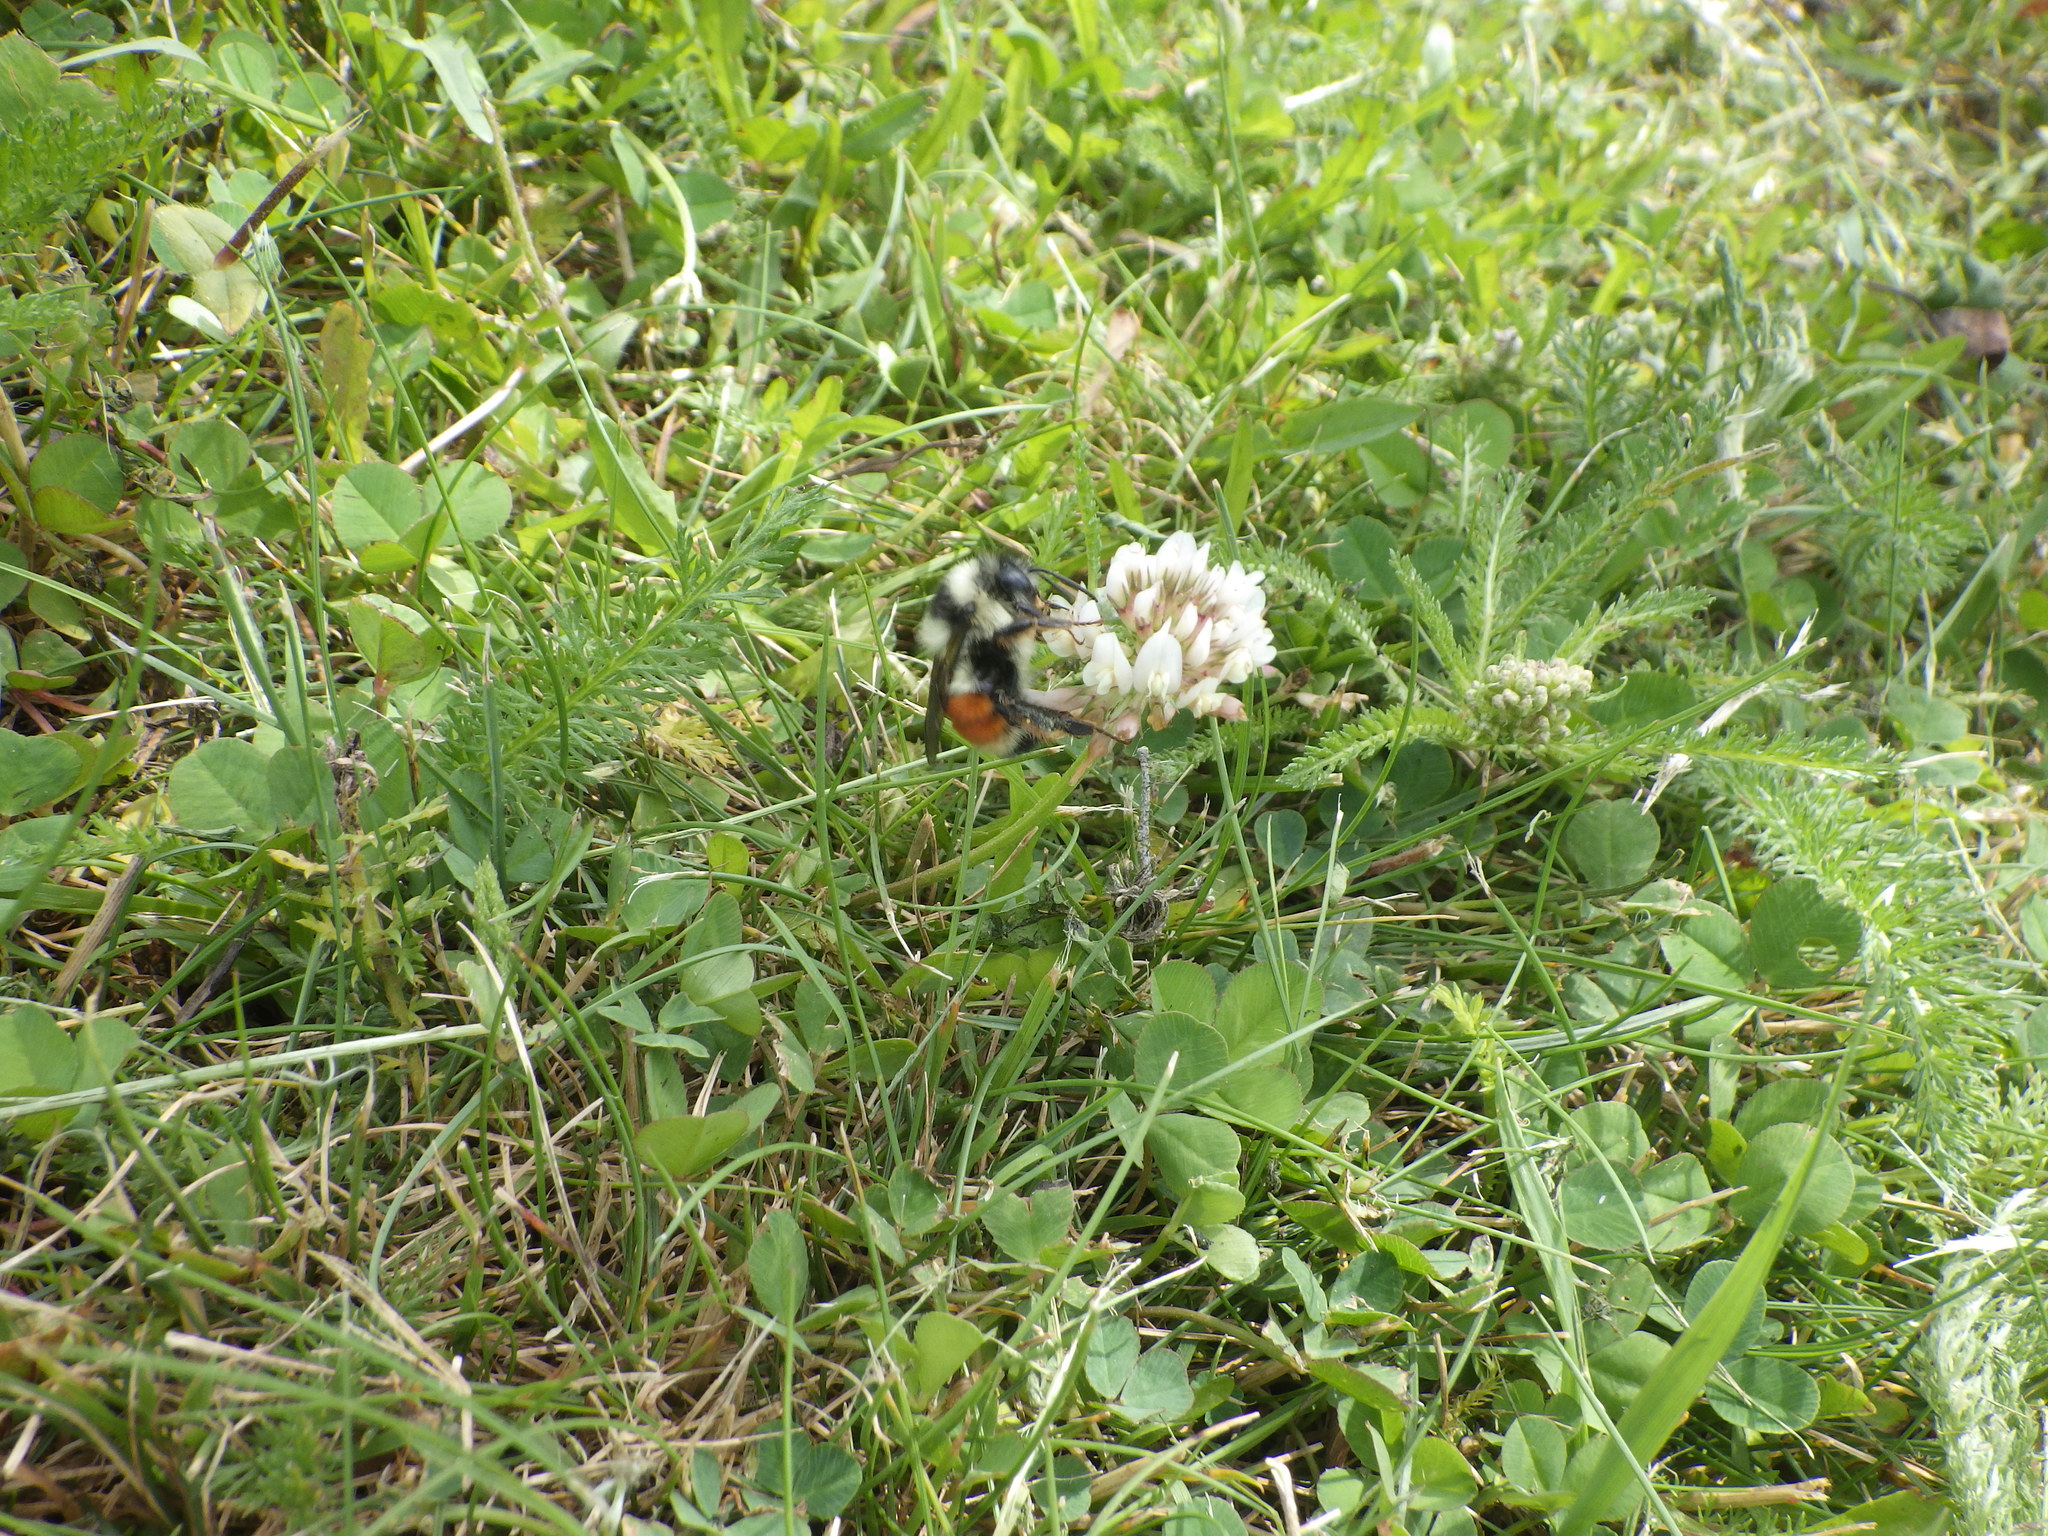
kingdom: Animalia
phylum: Arthropoda
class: Insecta
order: Hymenoptera
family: Apidae
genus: Bombus
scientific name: Bombus ternarius
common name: Tri-colored bumble bee
